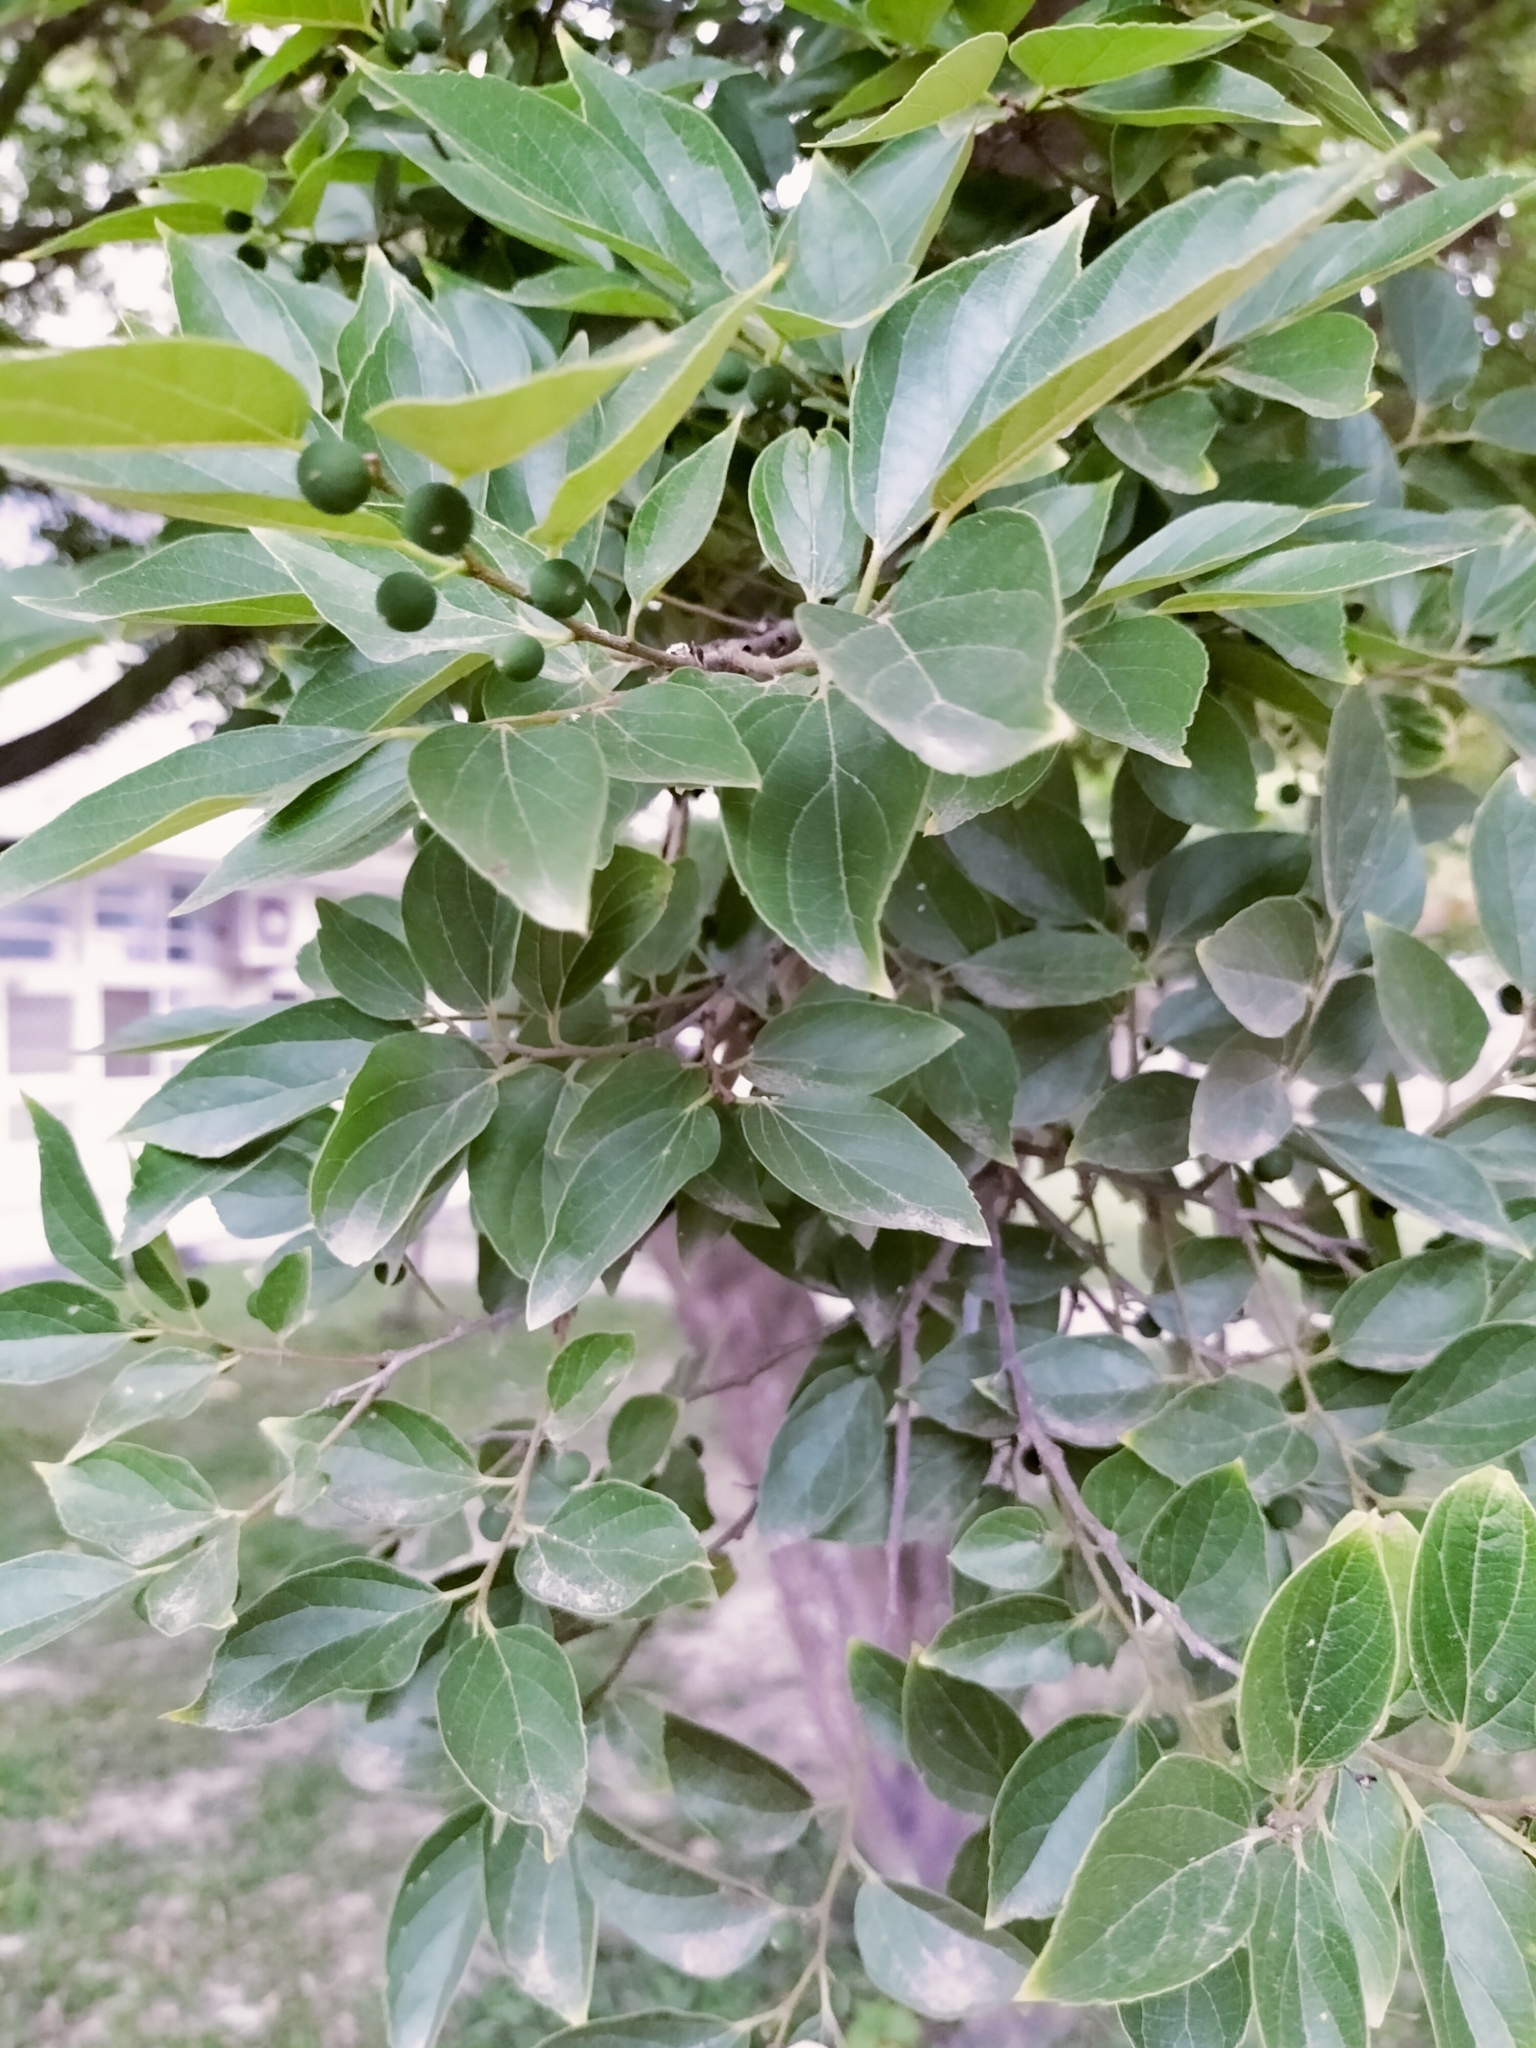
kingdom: Plantae
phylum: Tracheophyta
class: Magnoliopsida
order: Rosales
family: Cannabaceae
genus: Celtis
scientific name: Celtis sinensis
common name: Chinese hackberry
